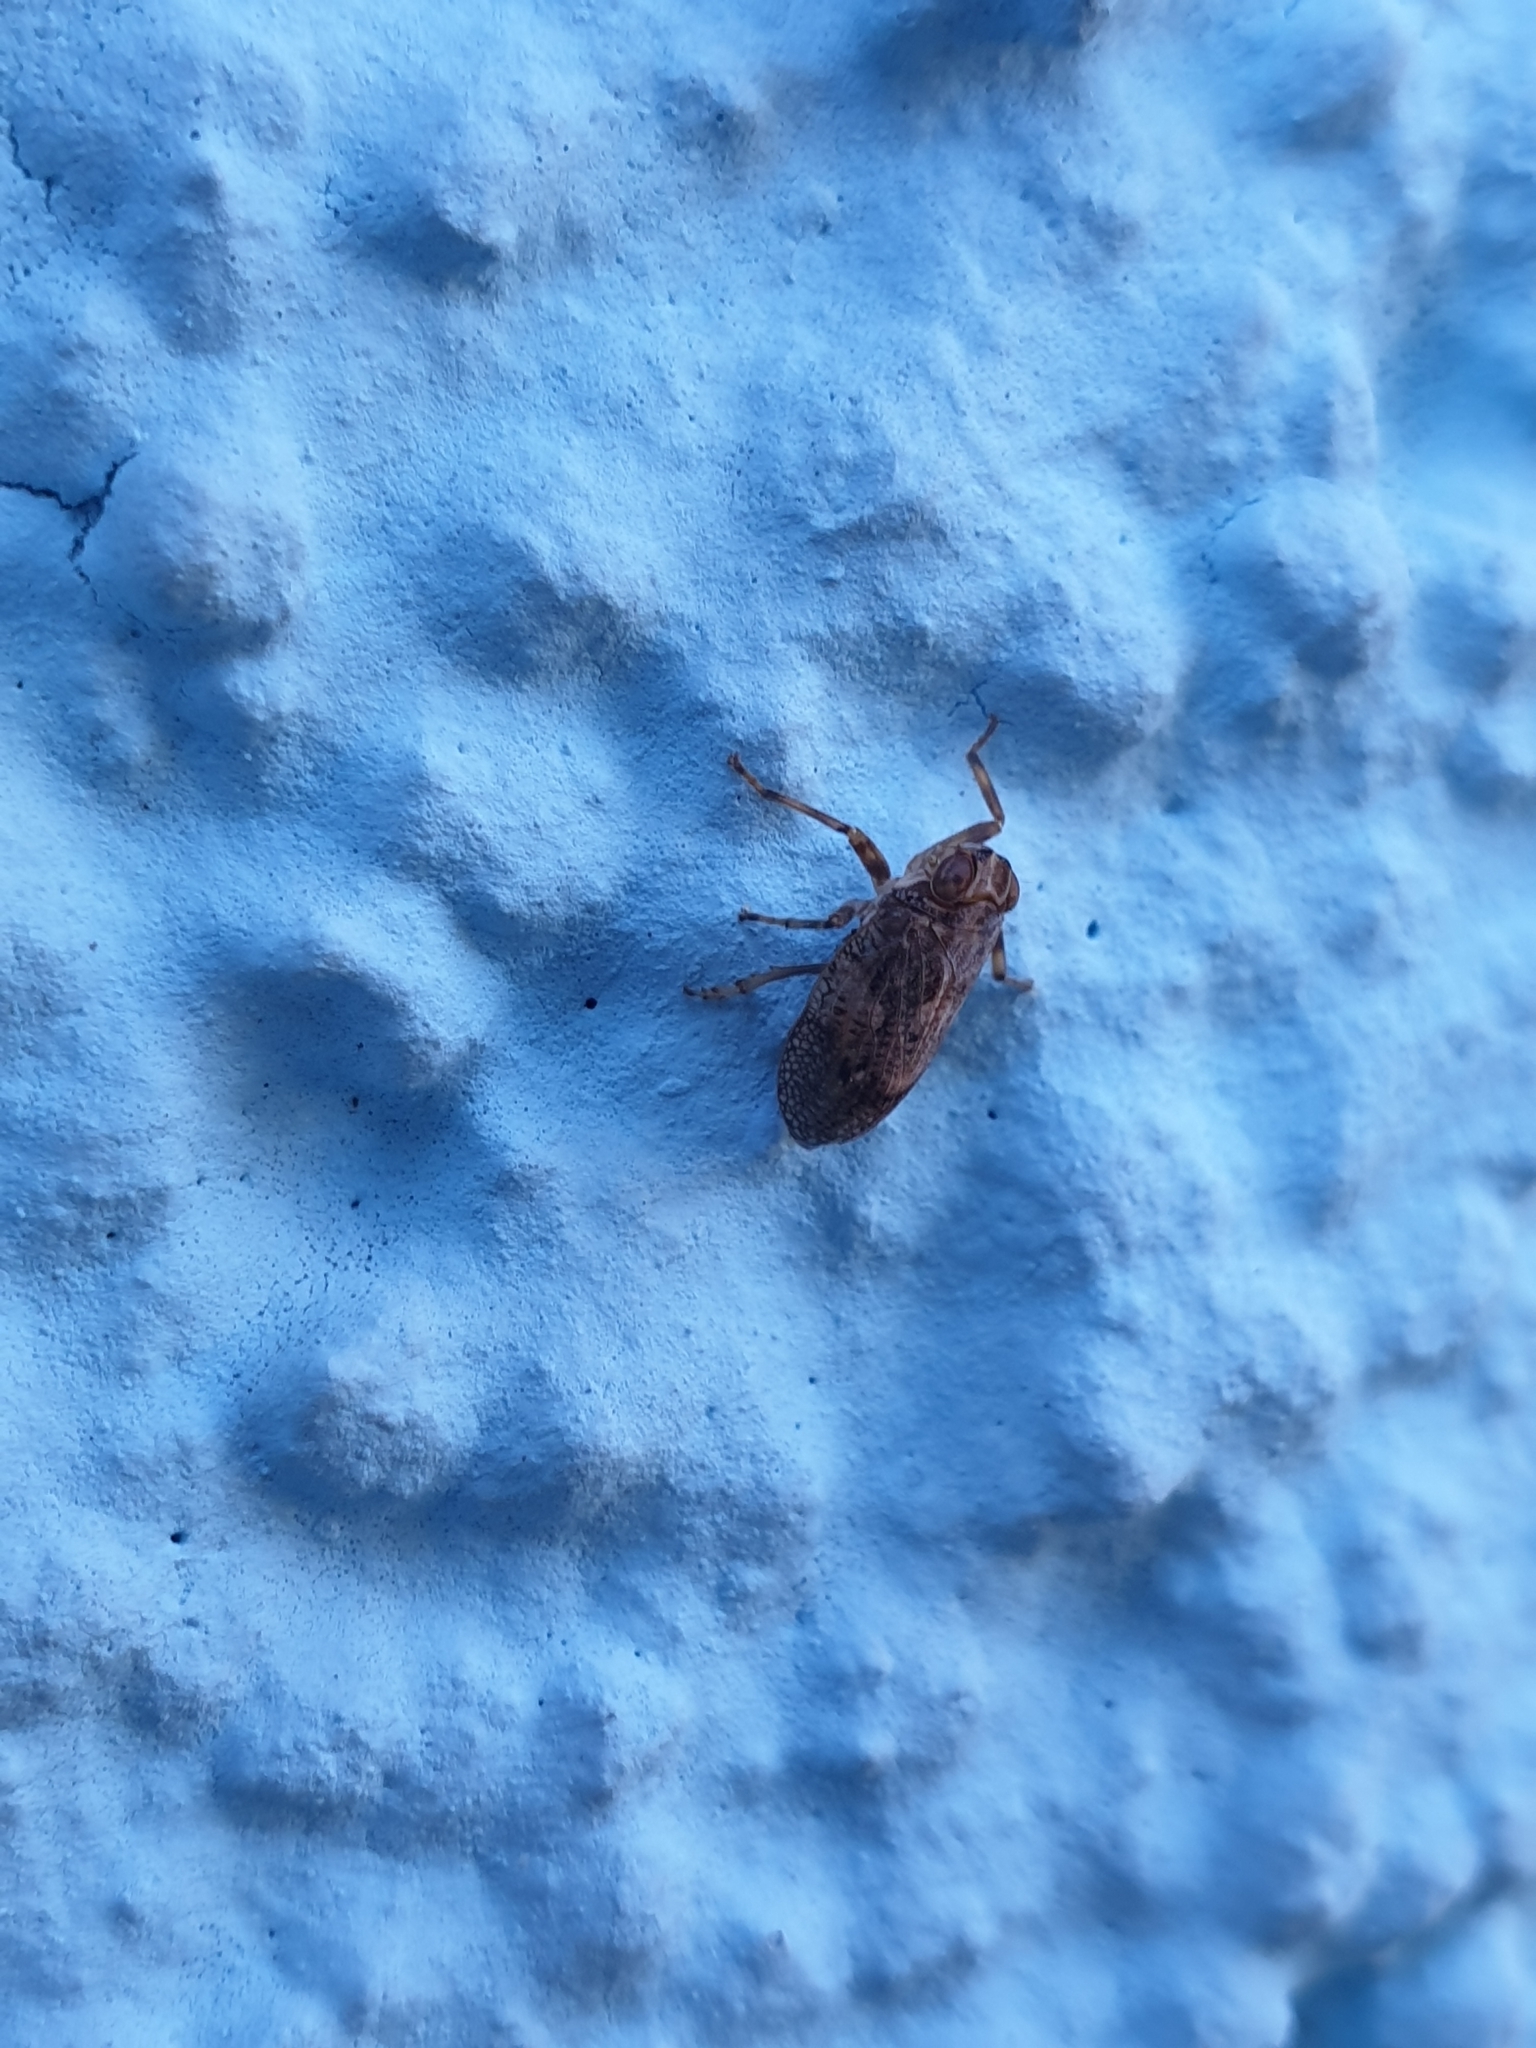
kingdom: Animalia
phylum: Arthropoda
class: Insecta
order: Hemiptera
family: Issidae
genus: Issus
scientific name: Issus coleoptratus
